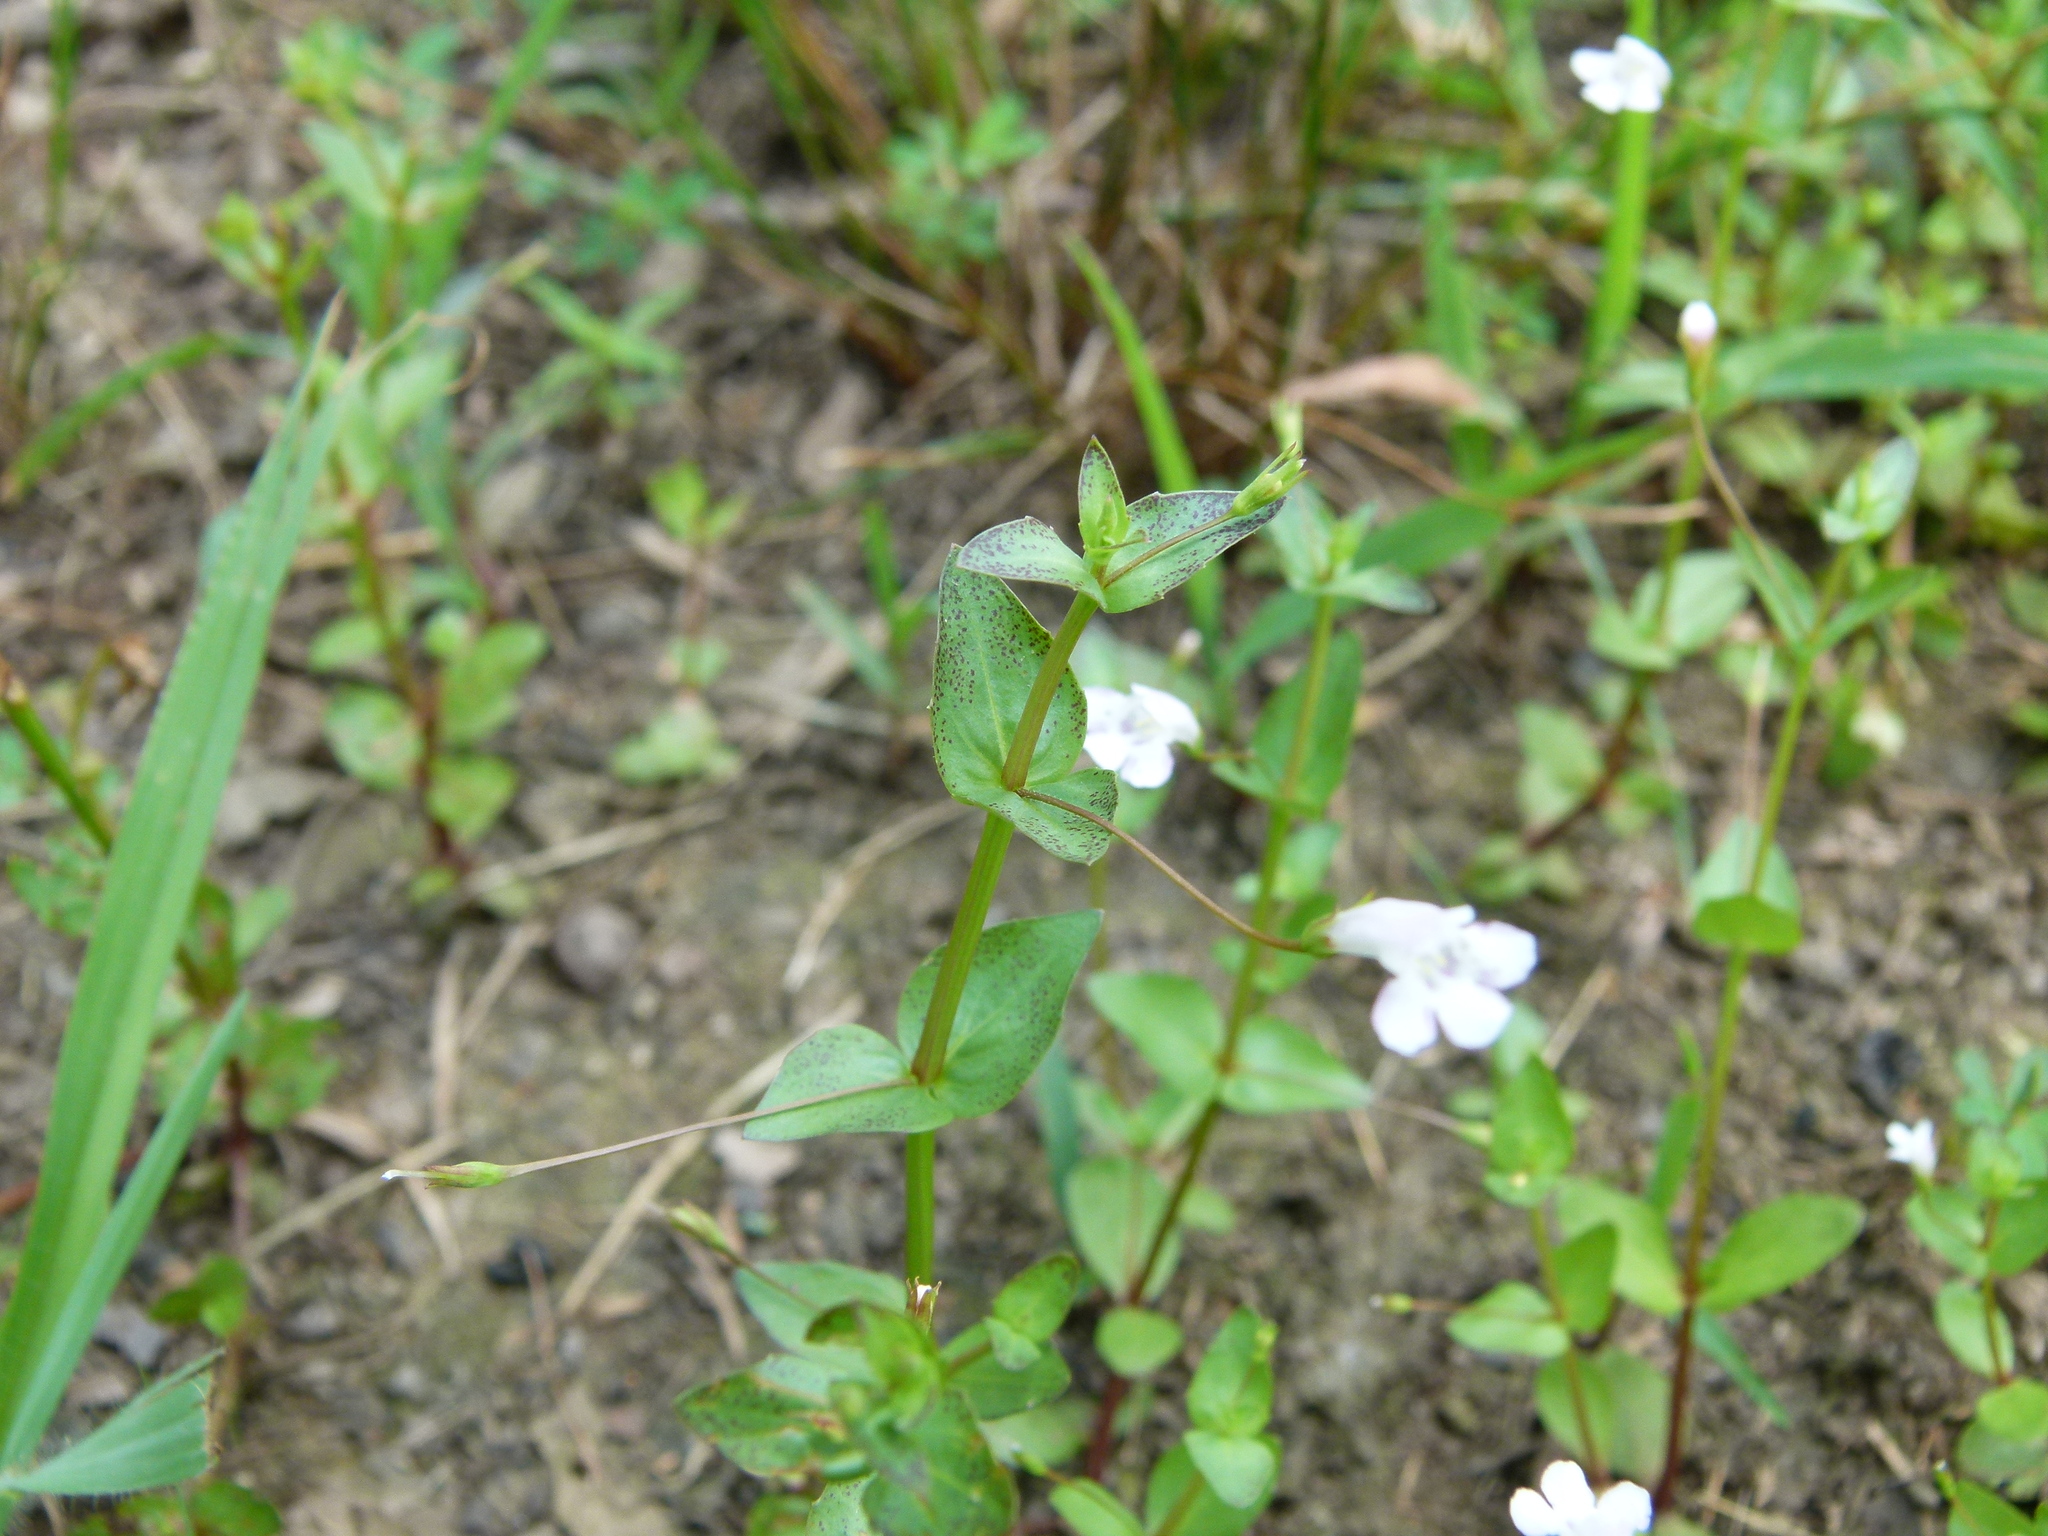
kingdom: Plantae
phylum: Tracheophyta
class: Magnoliopsida
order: Lamiales
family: Linderniaceae
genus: Lindernia
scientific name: Lindernia dubia
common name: Annual false pimpernel
